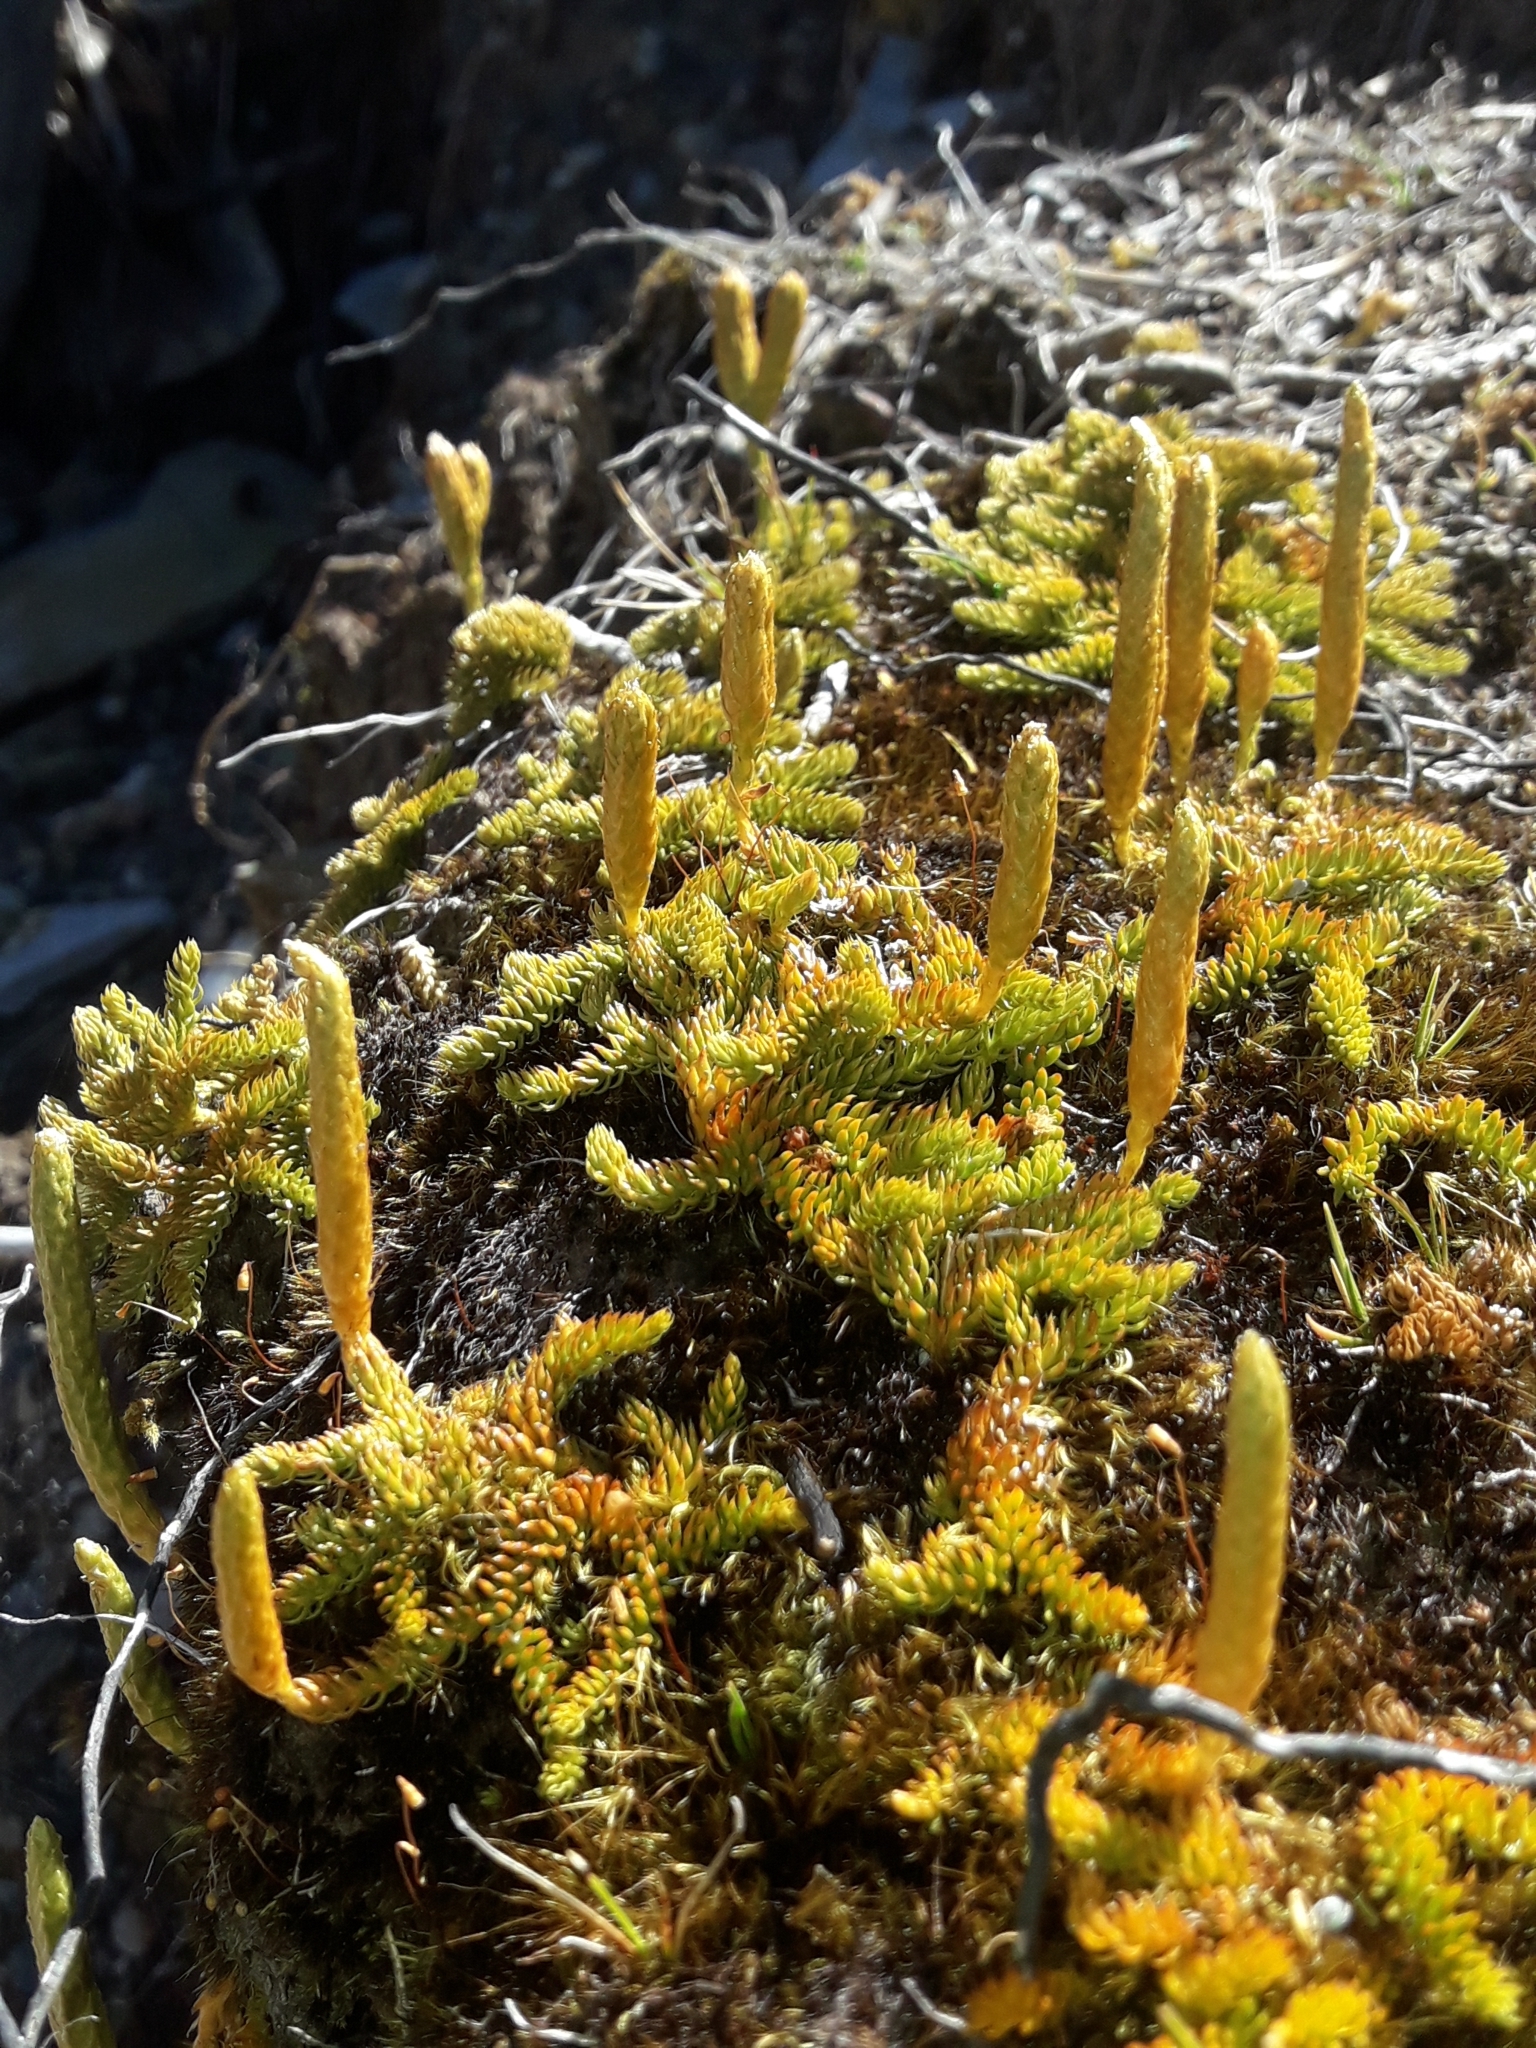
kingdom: Plantae
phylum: Tracheophyta
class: Lycopodiopsida
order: Lycopodiales
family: Lycopodiaceae
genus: Austrolycopodium
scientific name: Austrolycopodium fastigiatum
